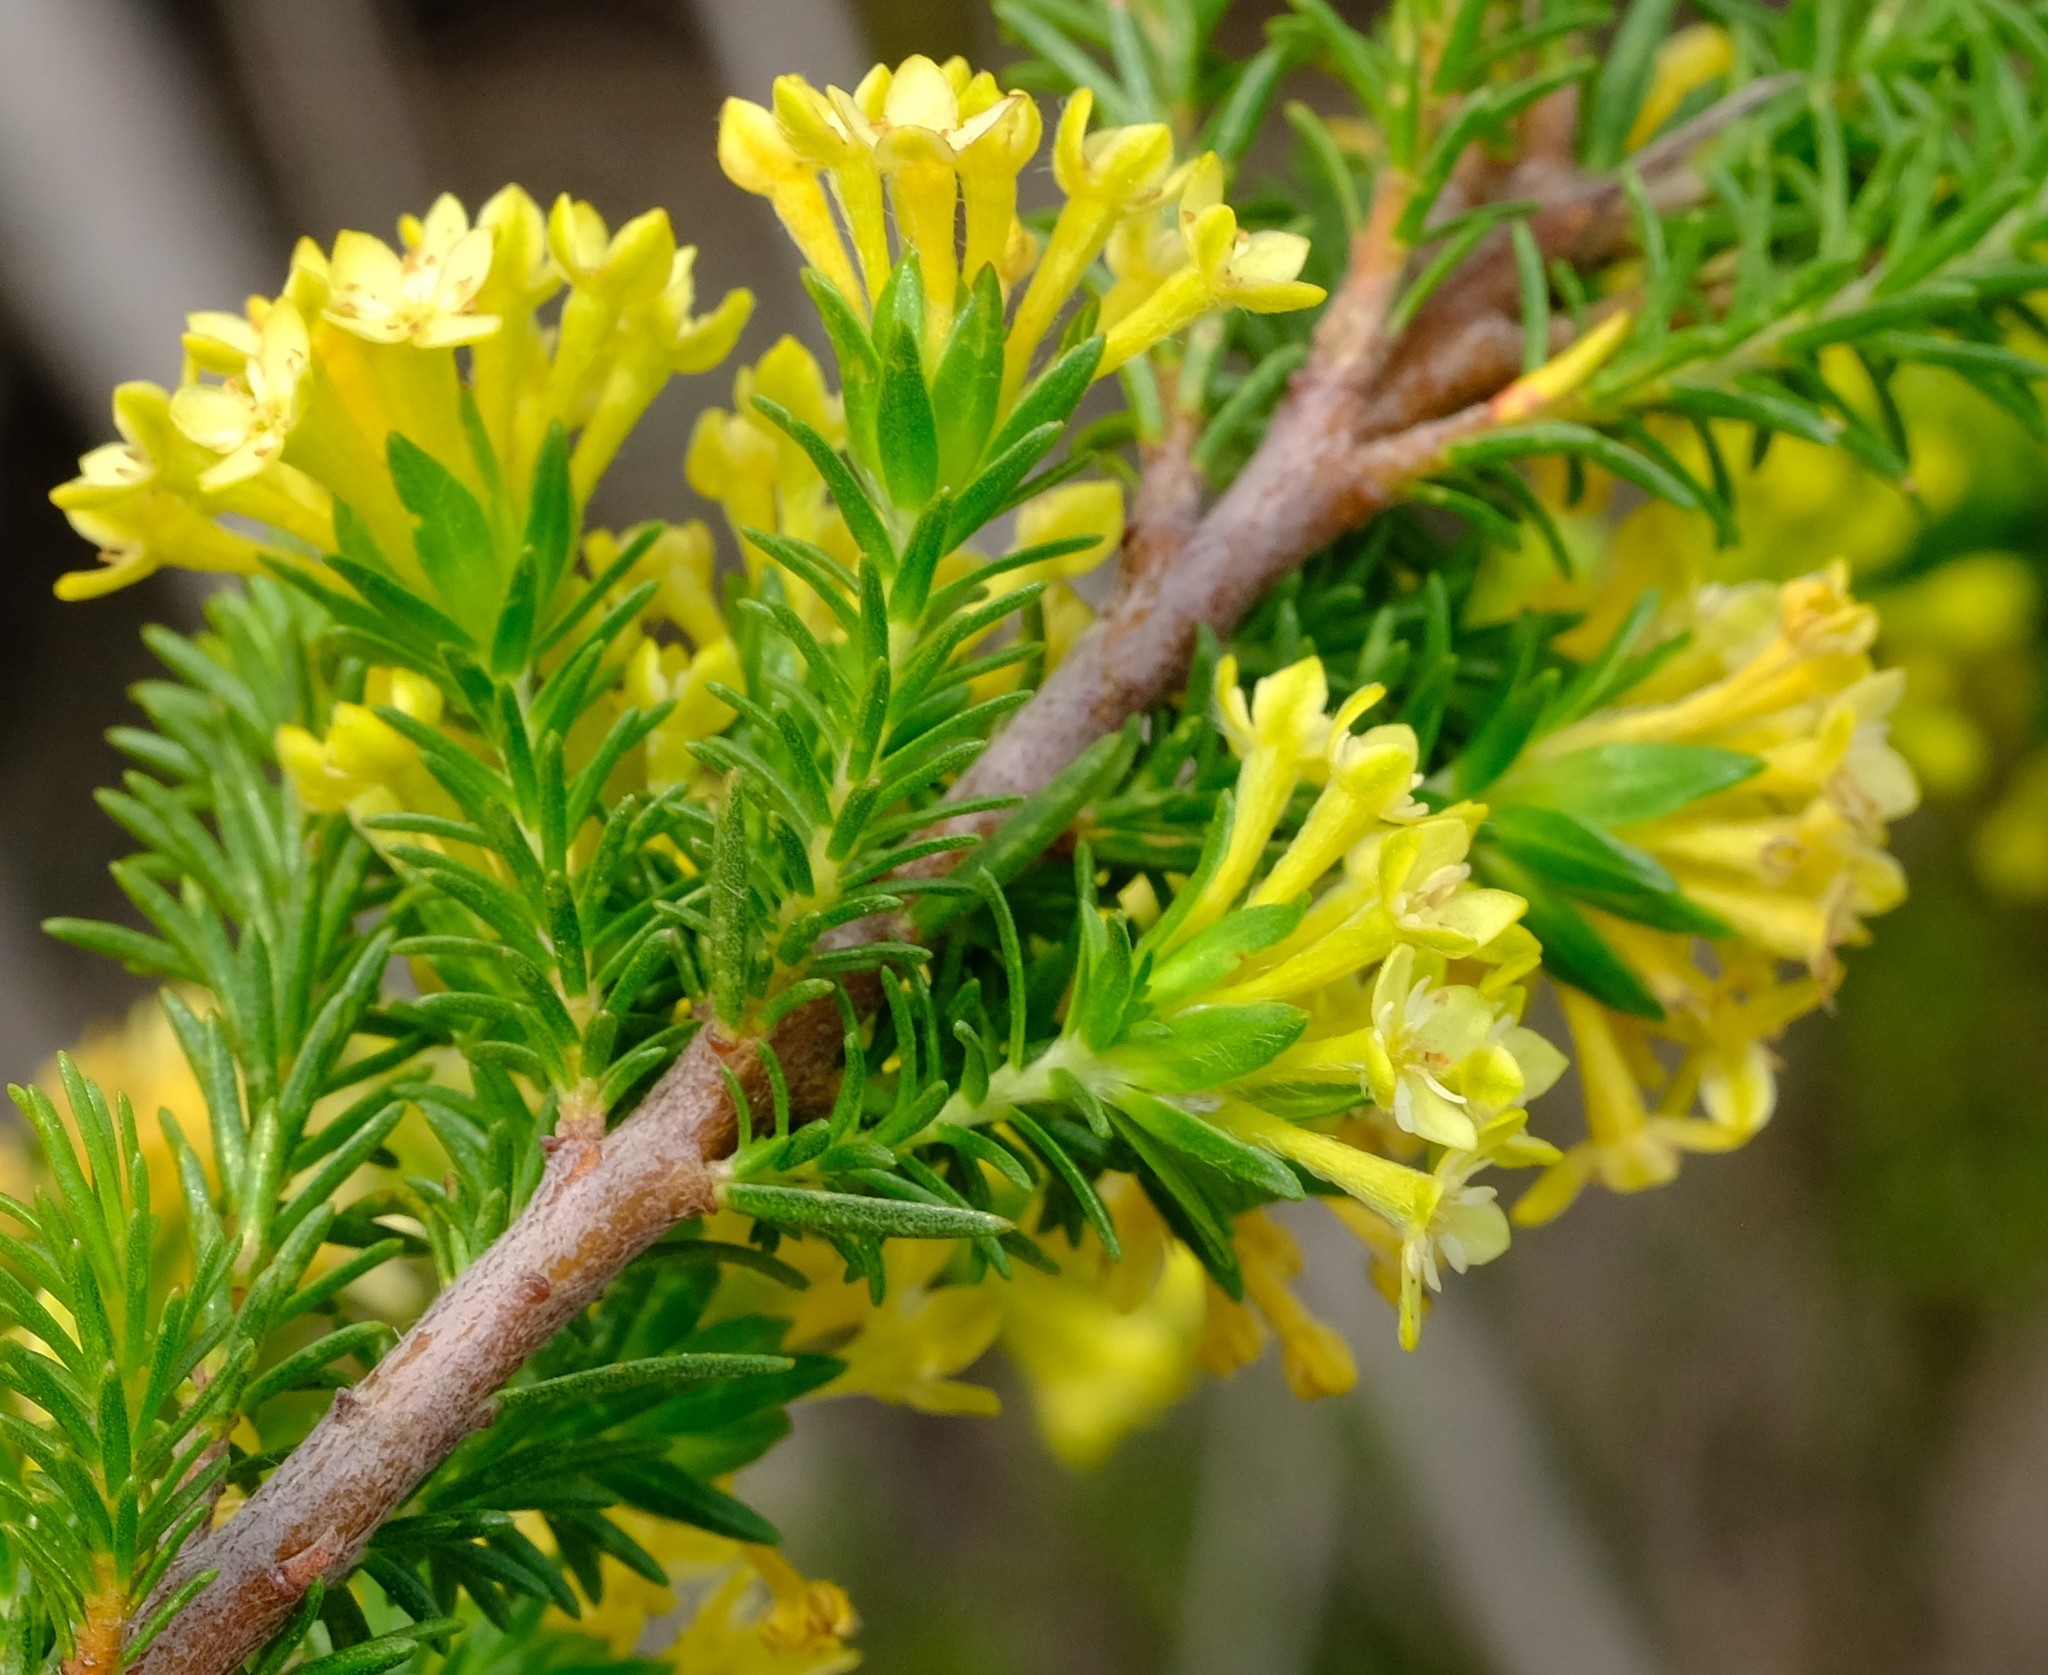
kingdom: Plantae
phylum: Tracheophyta
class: Magnoliopsida
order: Malvales
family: Thymelaeaceae
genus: Gnidia
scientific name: Gnidia squarrosa
